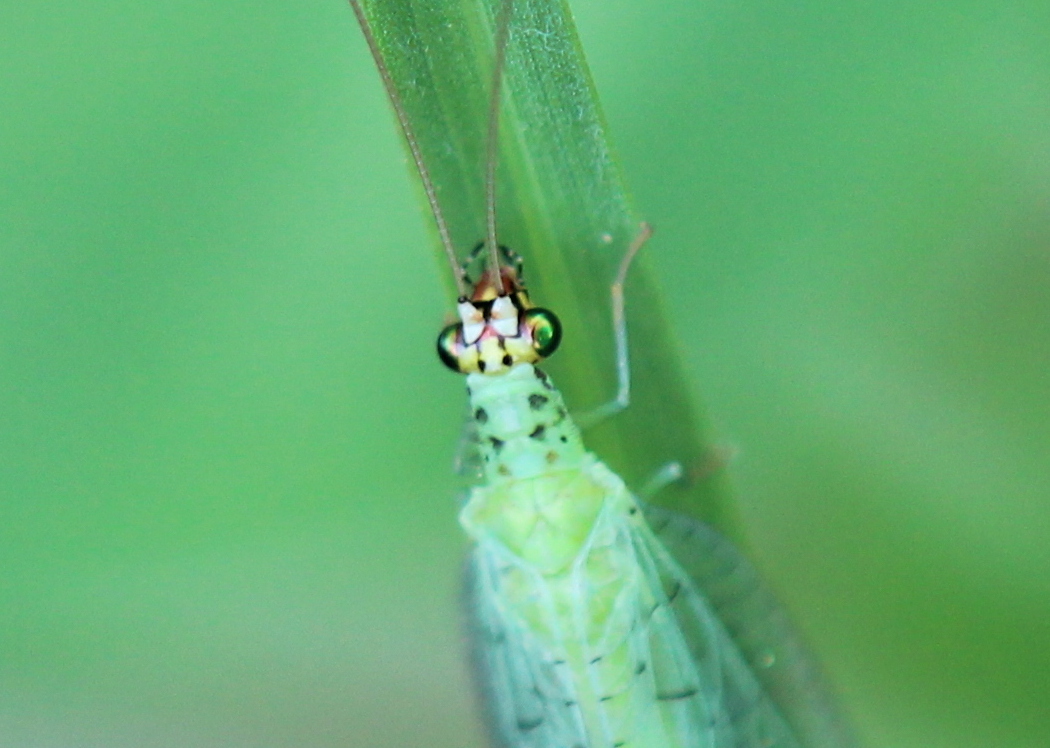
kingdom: Animalia
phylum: Arthropoda
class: Insecta
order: Neuroptera
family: Chrysopidae
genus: Chrysopa
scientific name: Chrysopa oculata
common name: Golden-eyed lacewing
